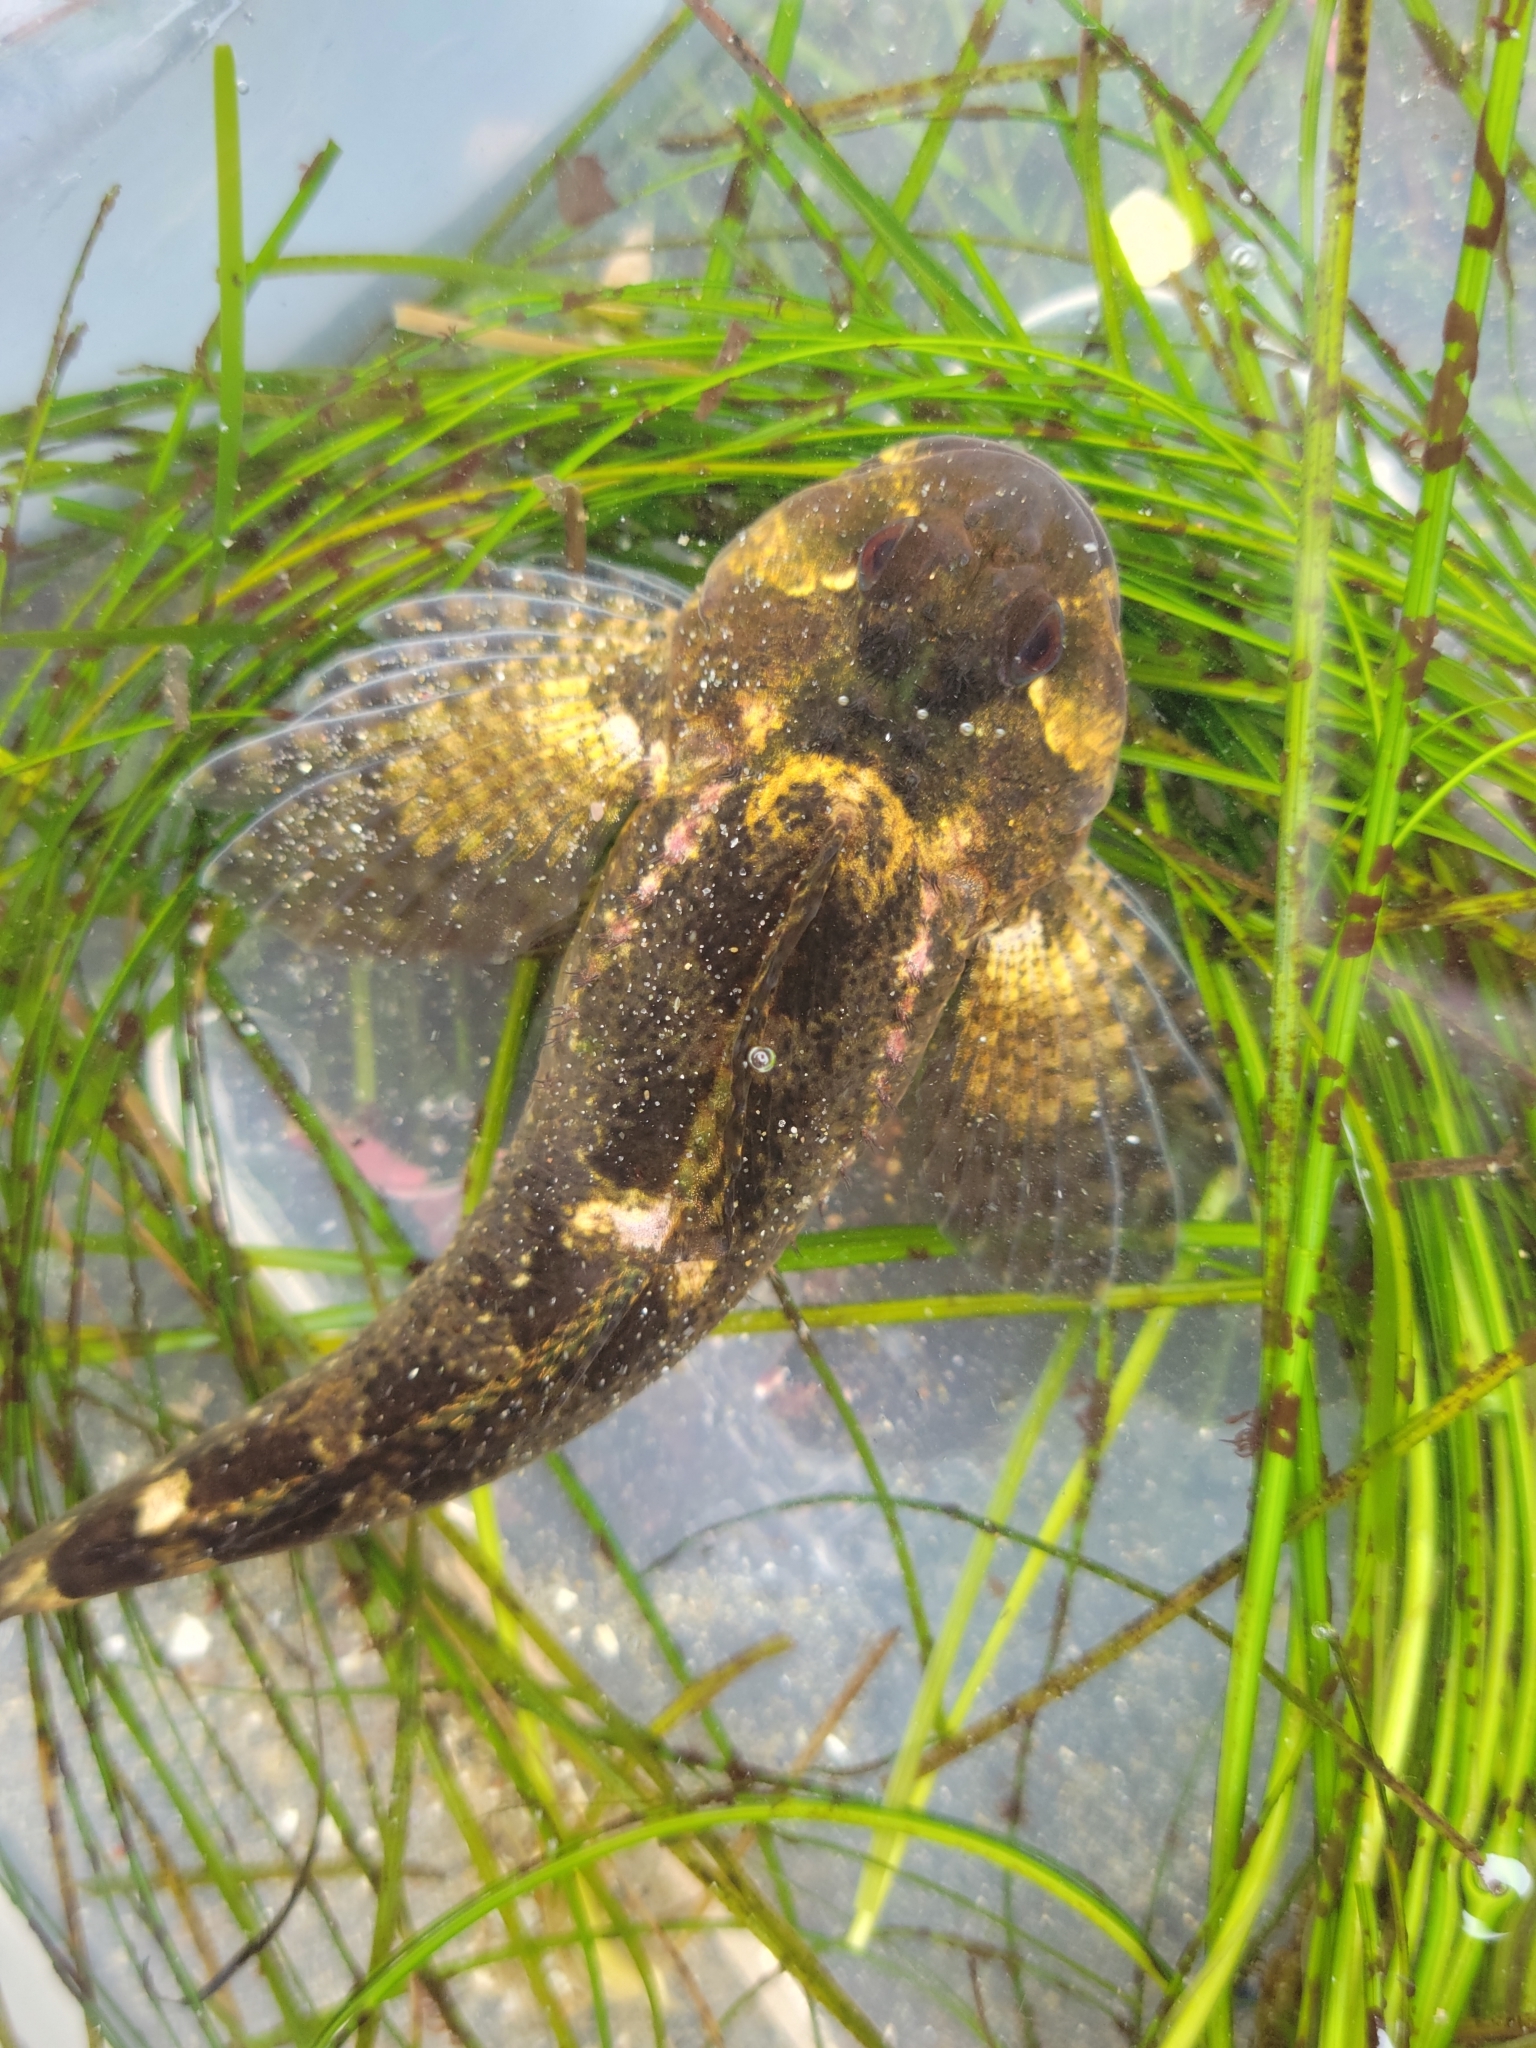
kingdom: Animalia
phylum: Chordata
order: Scorpaeniformes
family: Cottidae
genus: Clinocottus
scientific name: Clinocottus recalvus
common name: Bald sculpin
